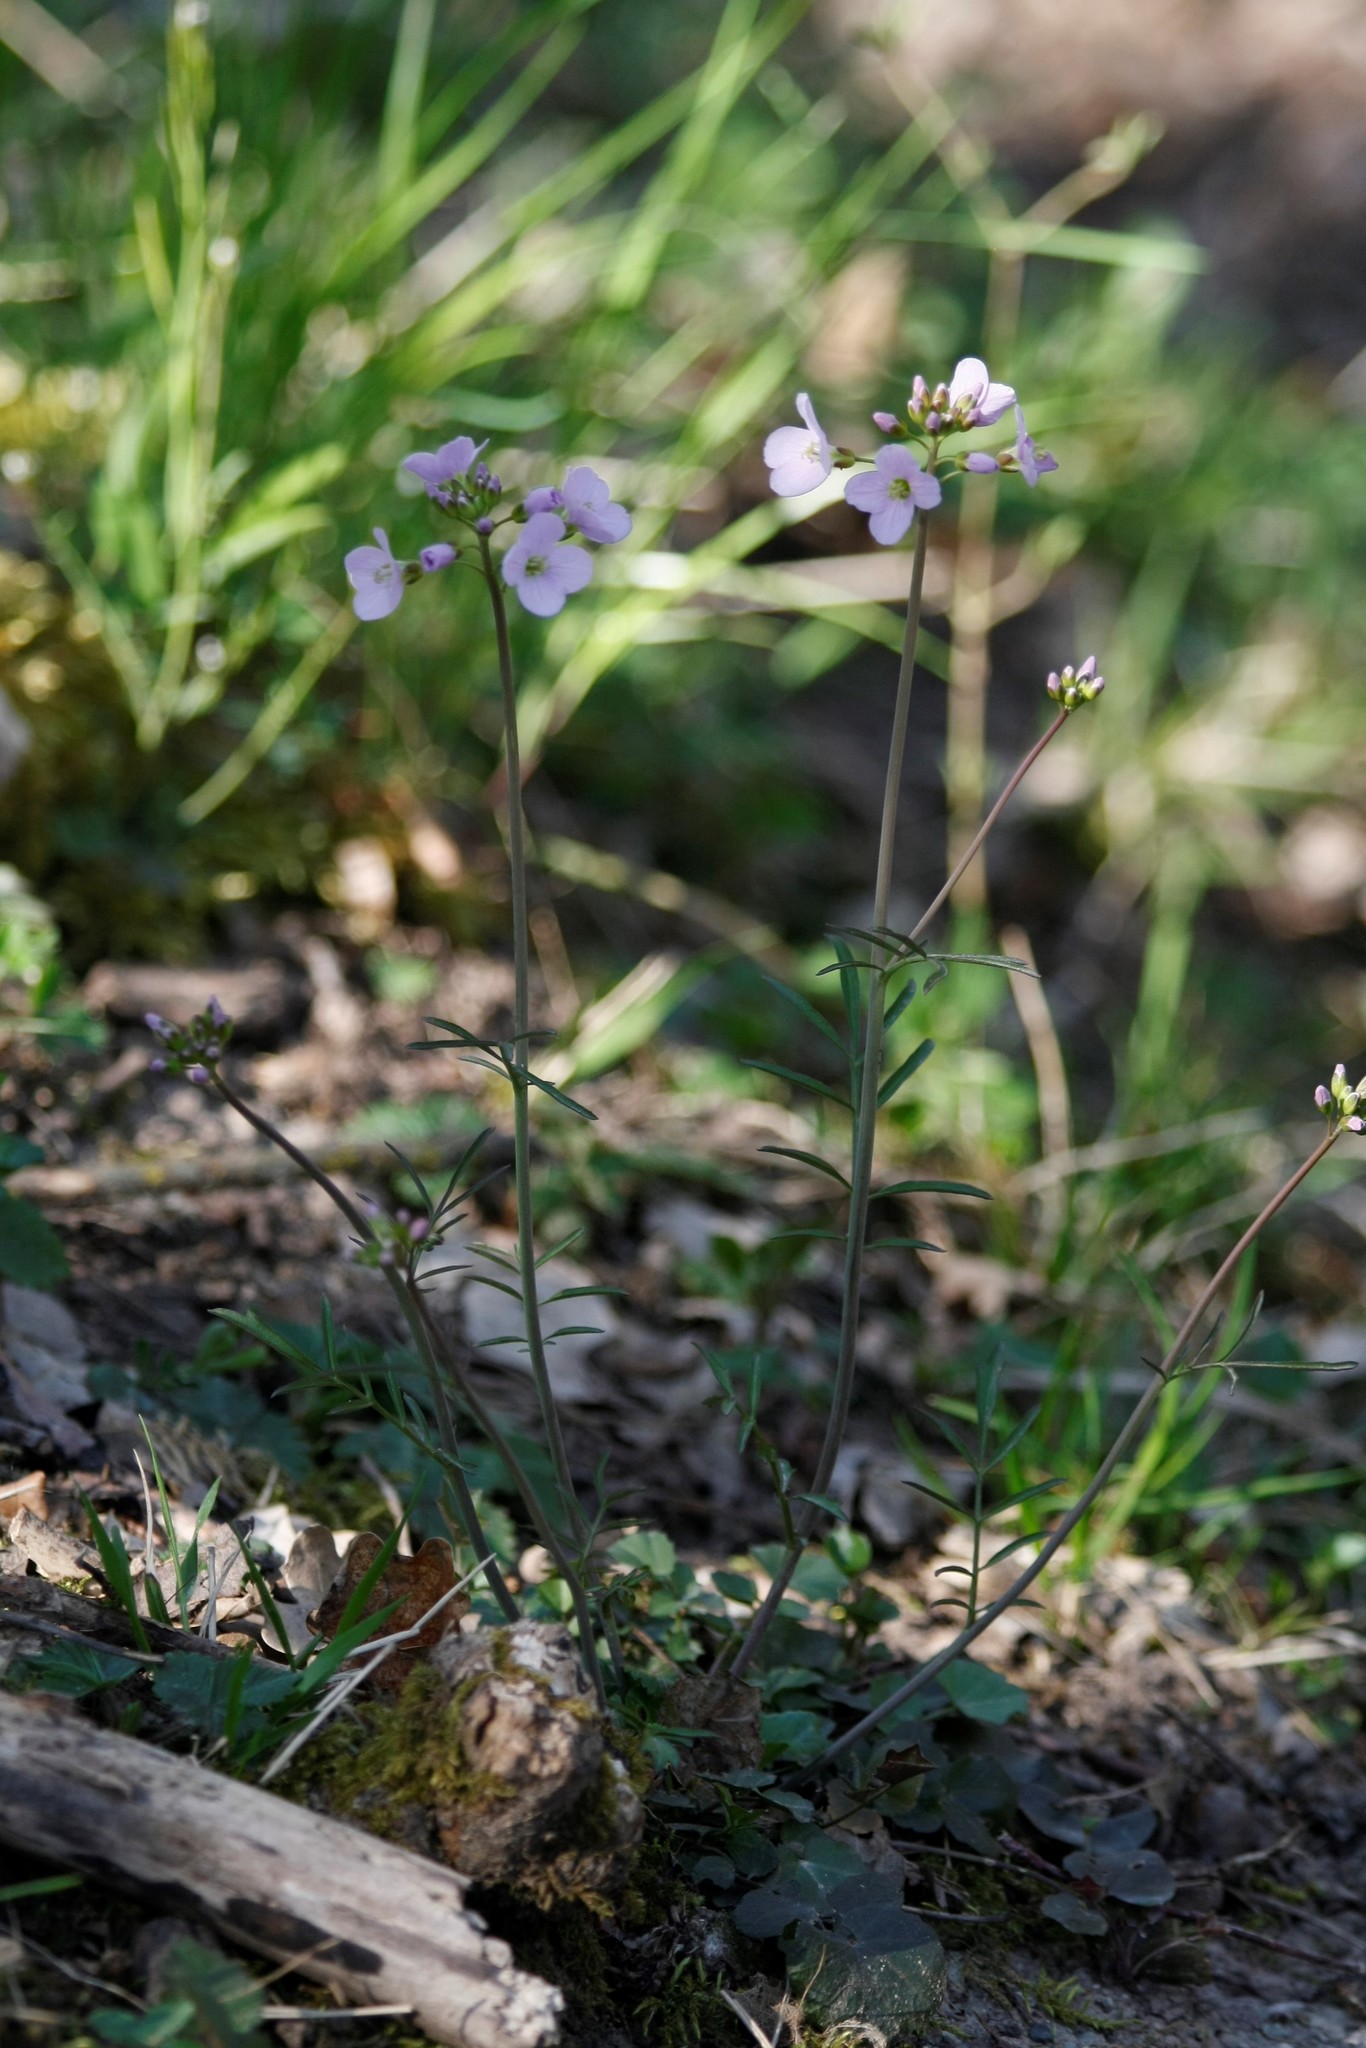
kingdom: Plantae
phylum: Tracheophyta
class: Magnoliopsida
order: Brassicales
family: Brassicaceae
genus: Cardamine
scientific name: Cardamine pratensis
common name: Cuckoo flower
